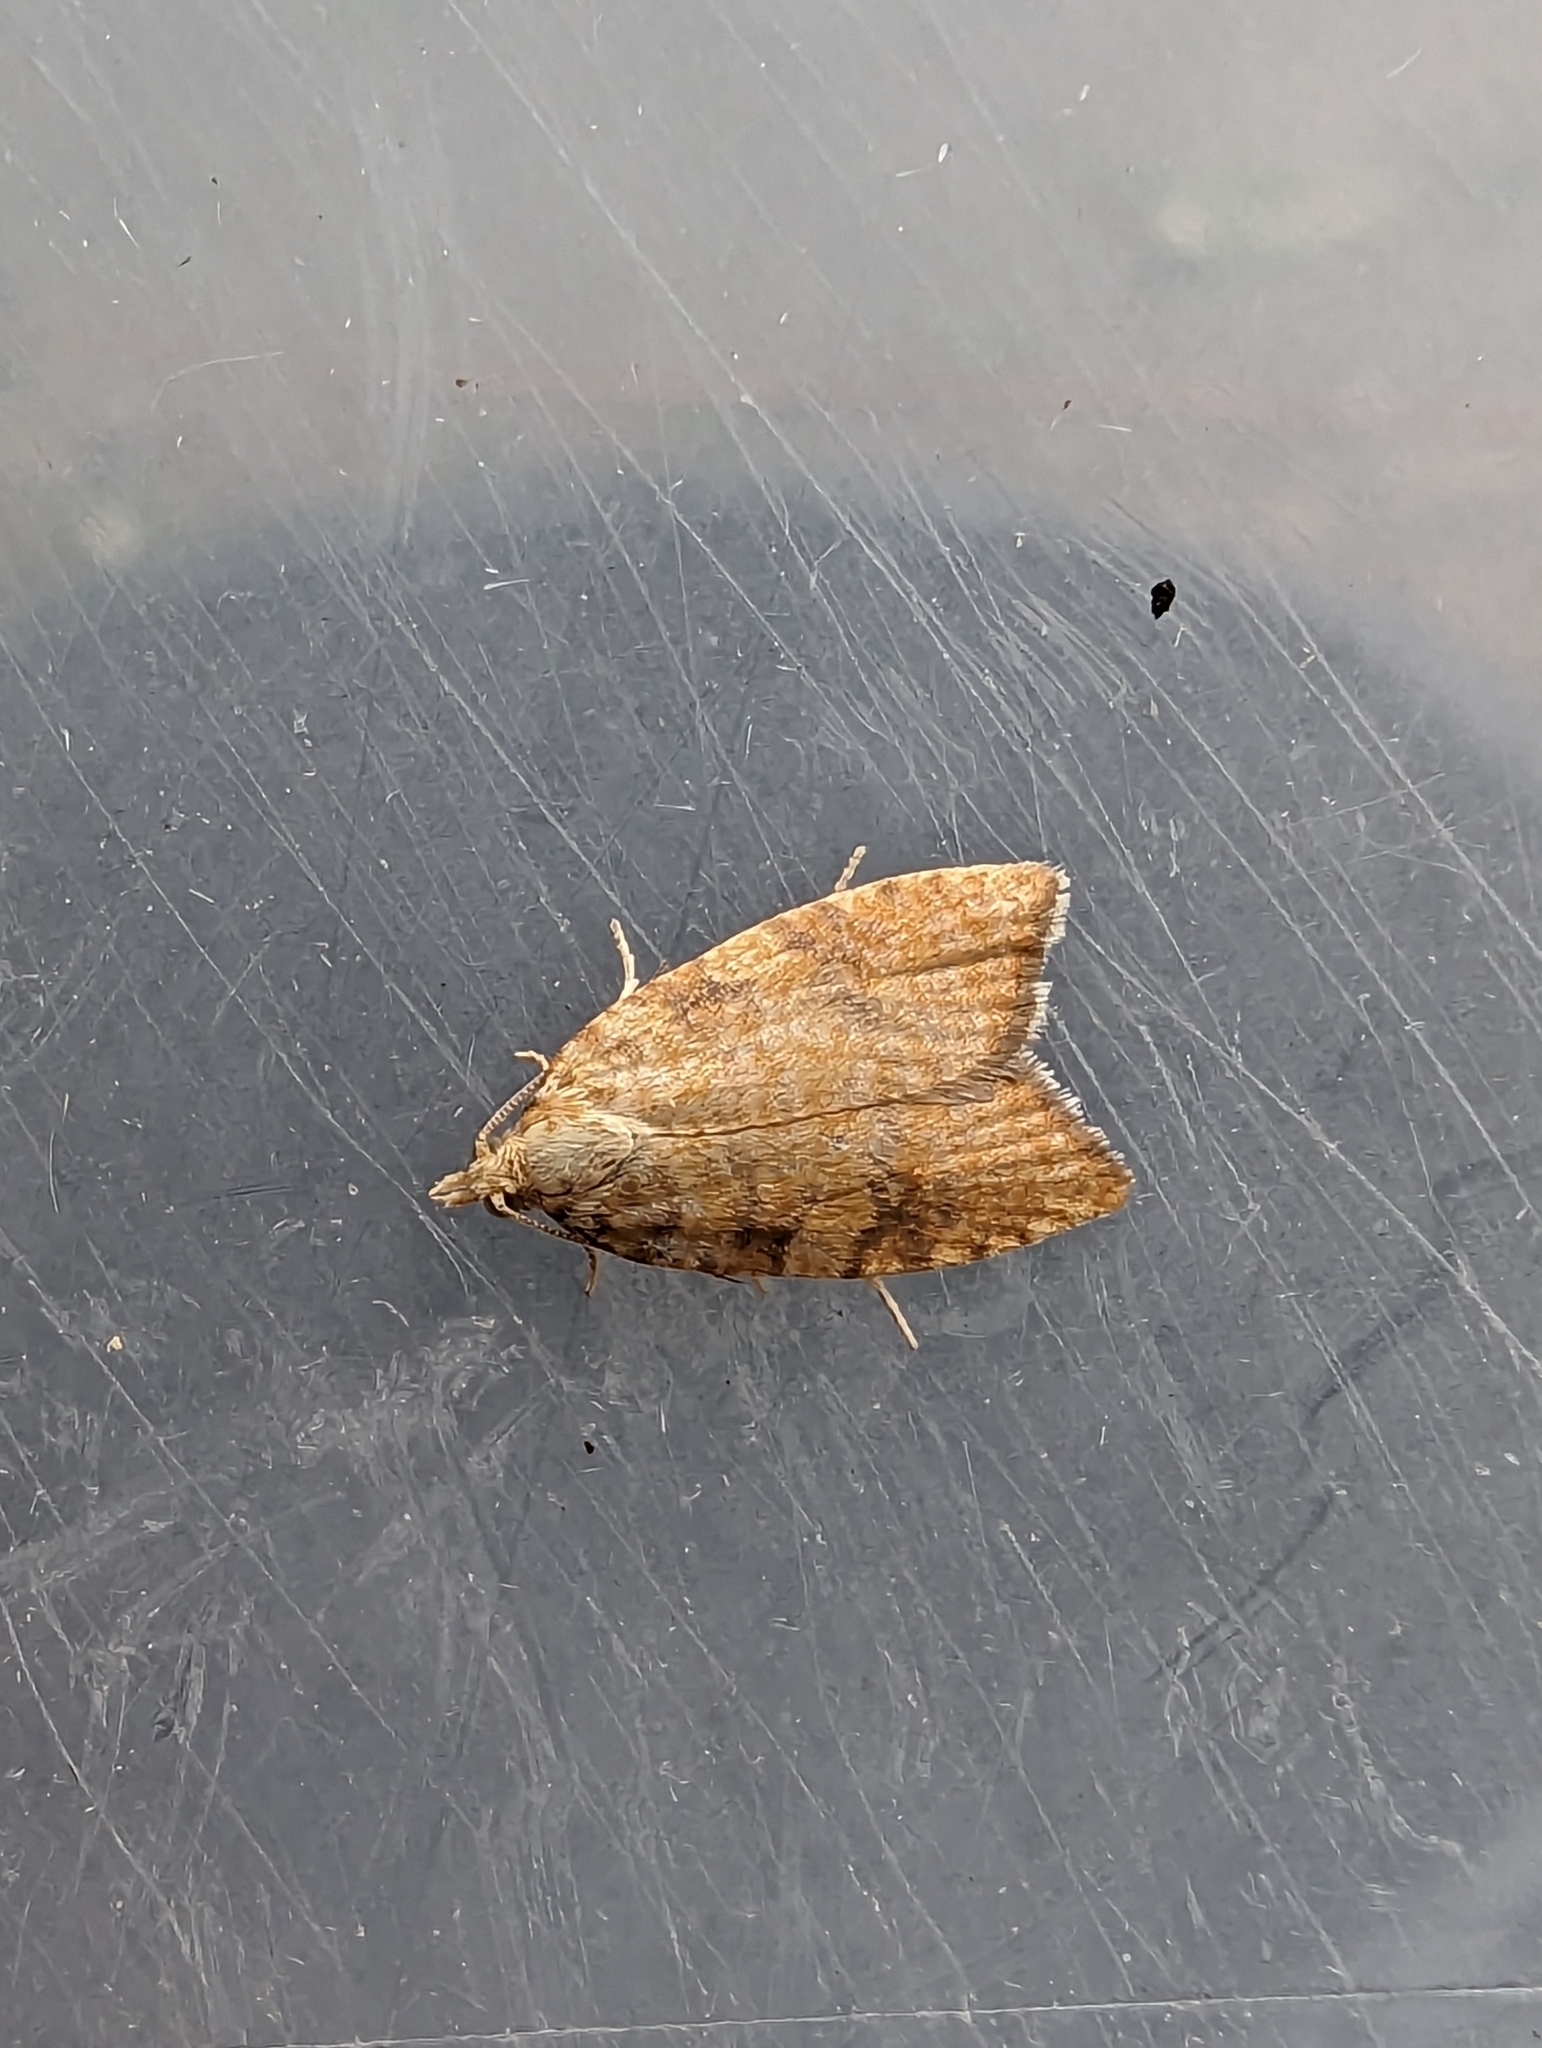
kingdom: Animalia
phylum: Arthropoda
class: Insecta
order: Lepidoptera
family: Tortricidae
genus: Aleimma
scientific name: Aleimma loeflingiana
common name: Yellow oak button
